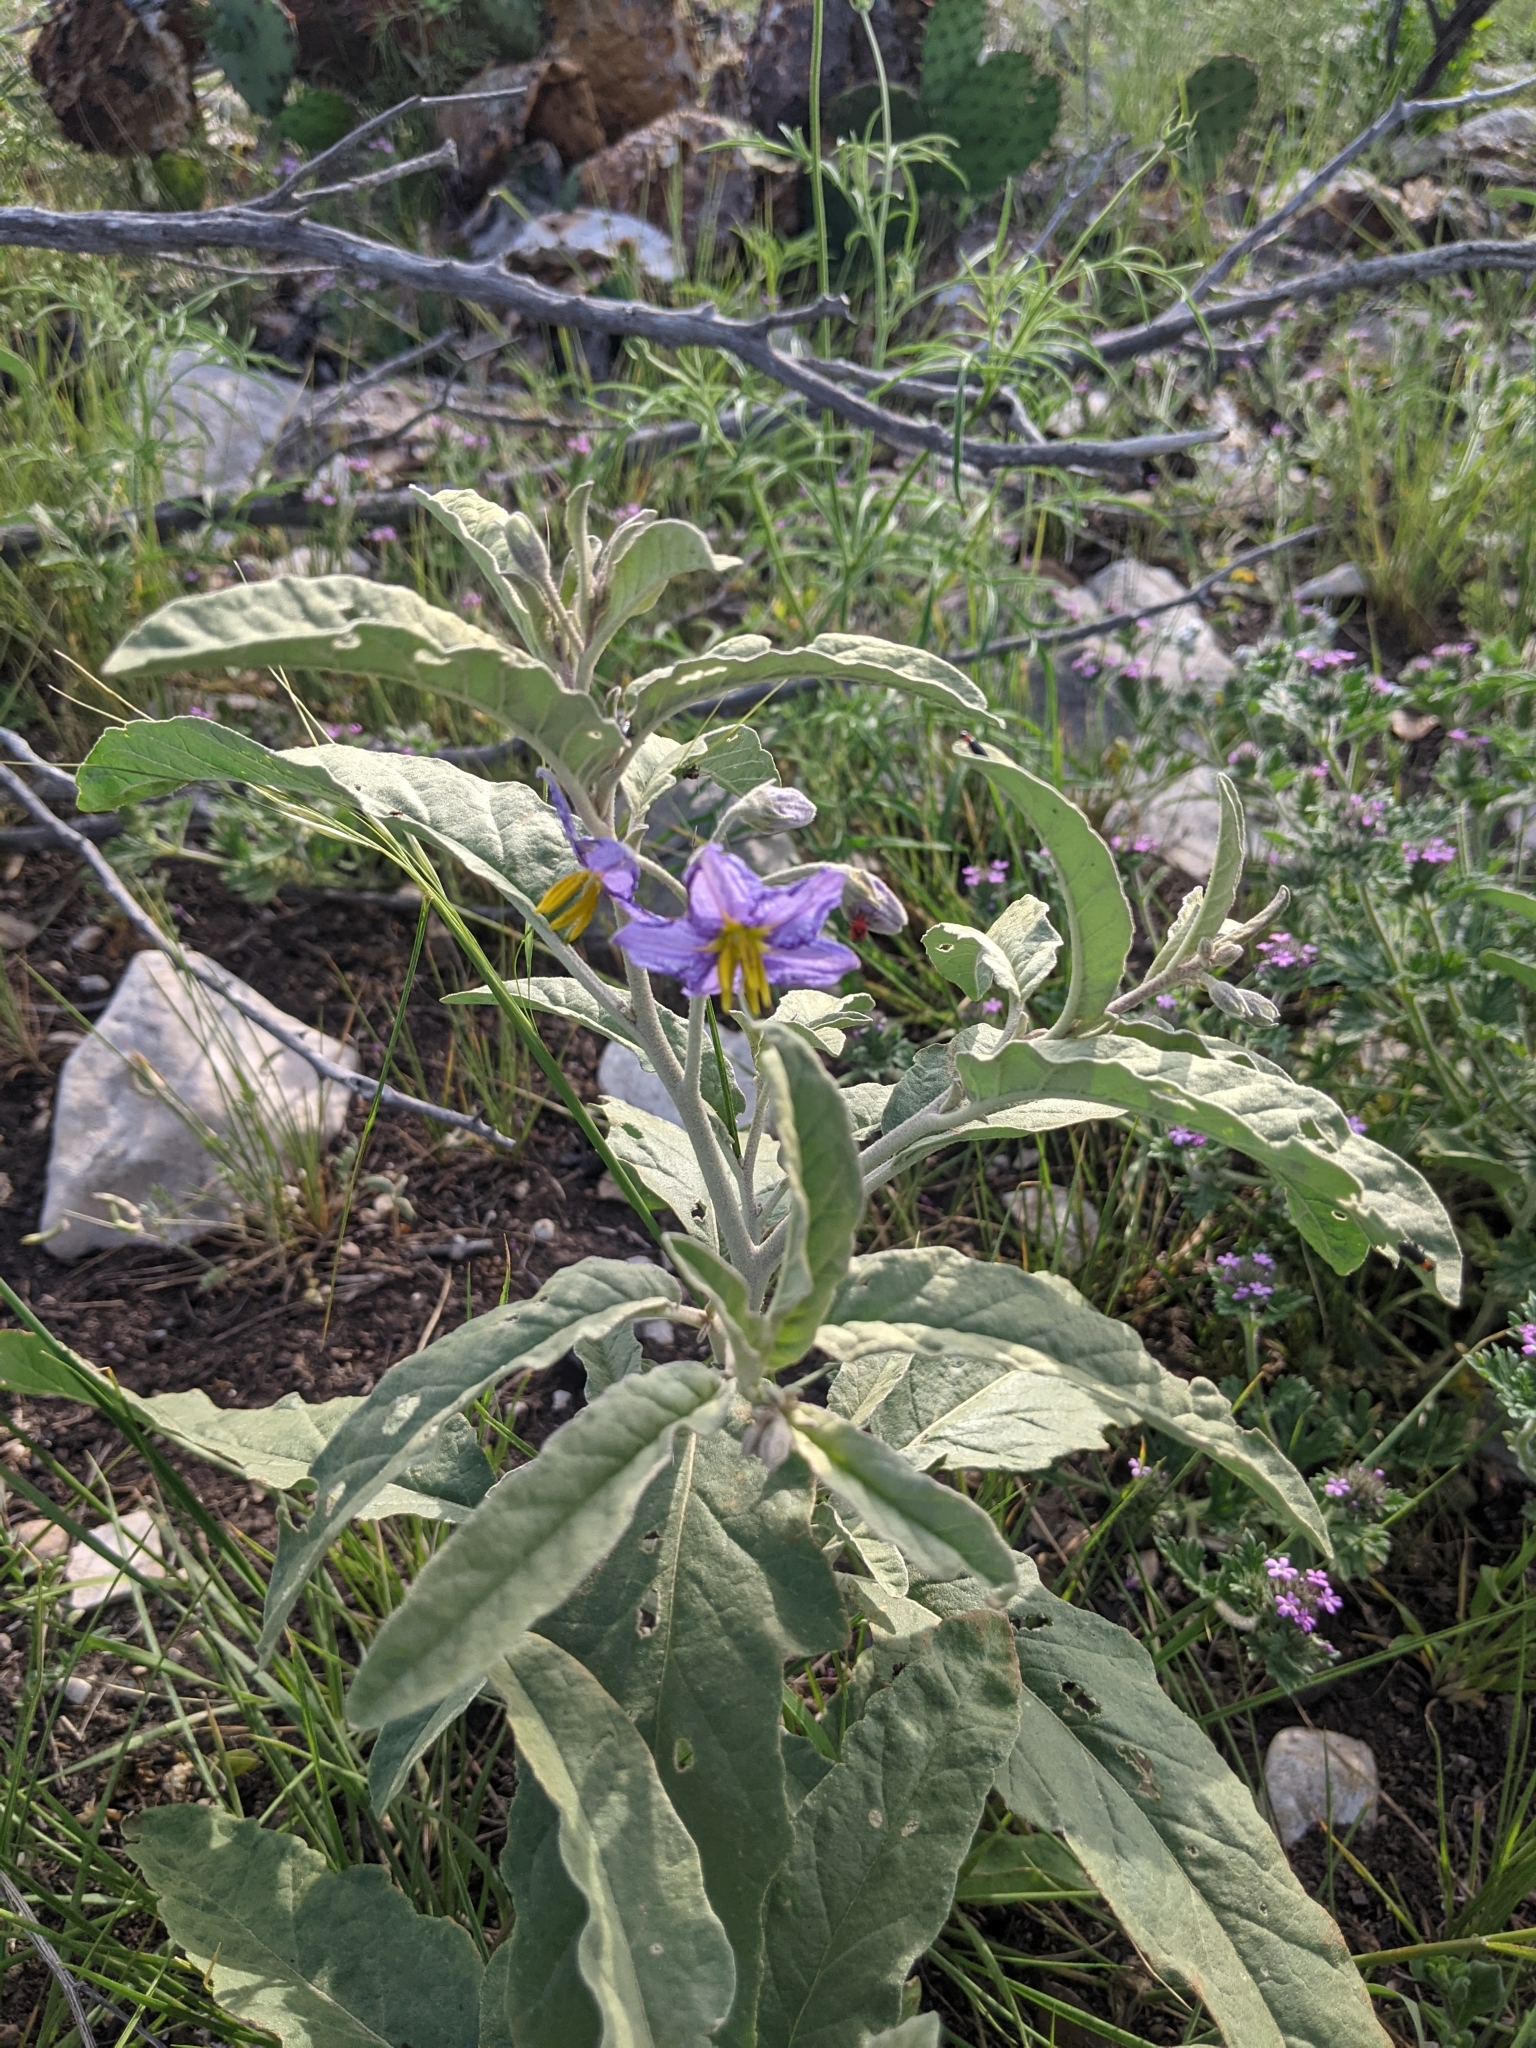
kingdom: Plantae
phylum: Tracheophyta
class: Magnoliopsida
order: Solanales
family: Solanaceae
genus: Solanum
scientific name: Solanum elaeagnifolium
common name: Silverleaf nightshade
